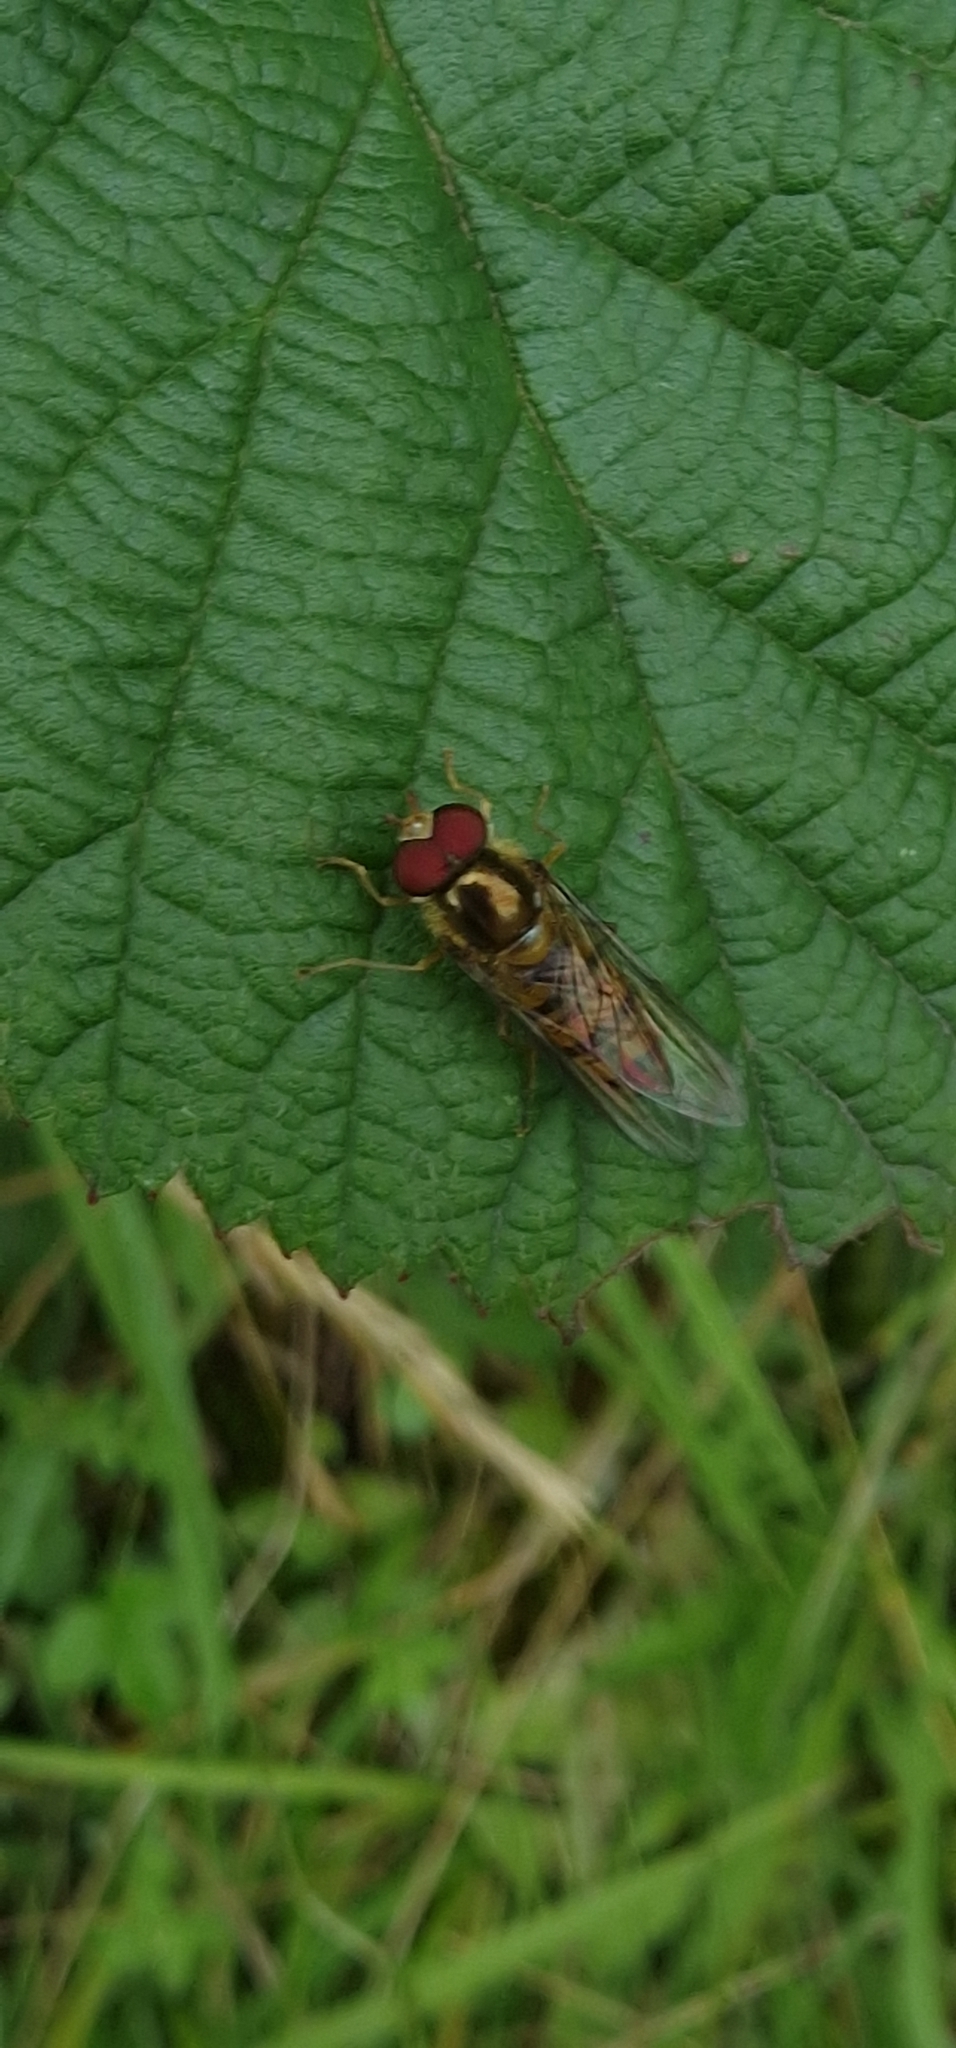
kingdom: Animalia
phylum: Arthropoda
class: Insecta
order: Diptera
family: Syrphidae
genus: Episyrphus
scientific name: Episyrphus balteatus
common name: Marmalade hoverfly
